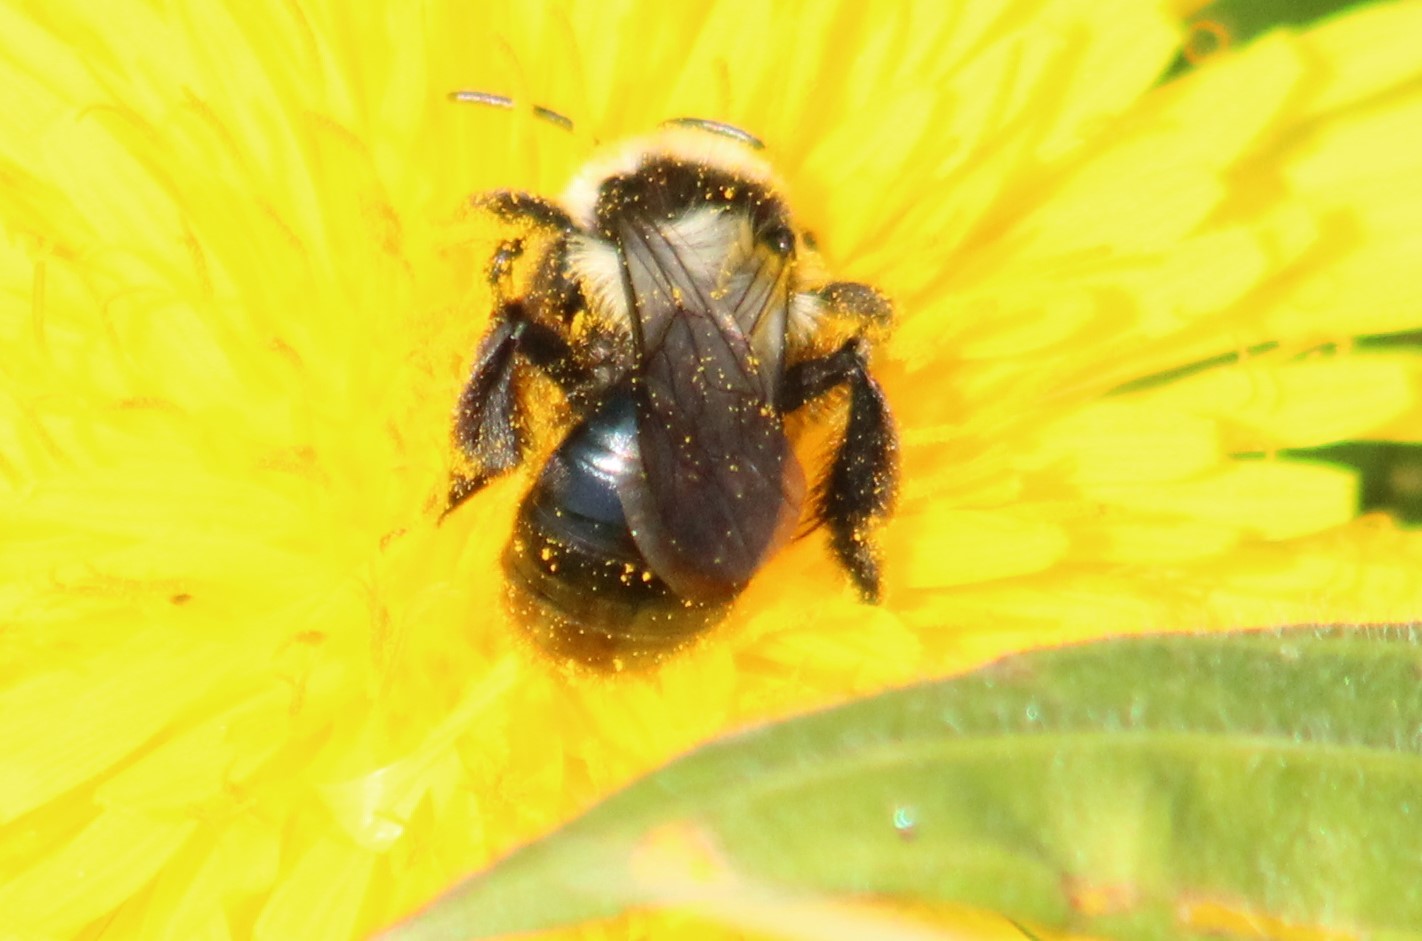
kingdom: Animalia
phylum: Arthropoda
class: Insecta
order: Hymenoptera
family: Andrenidae
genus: Andrena
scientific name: Andrena cineraria
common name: Ashy mining bee
